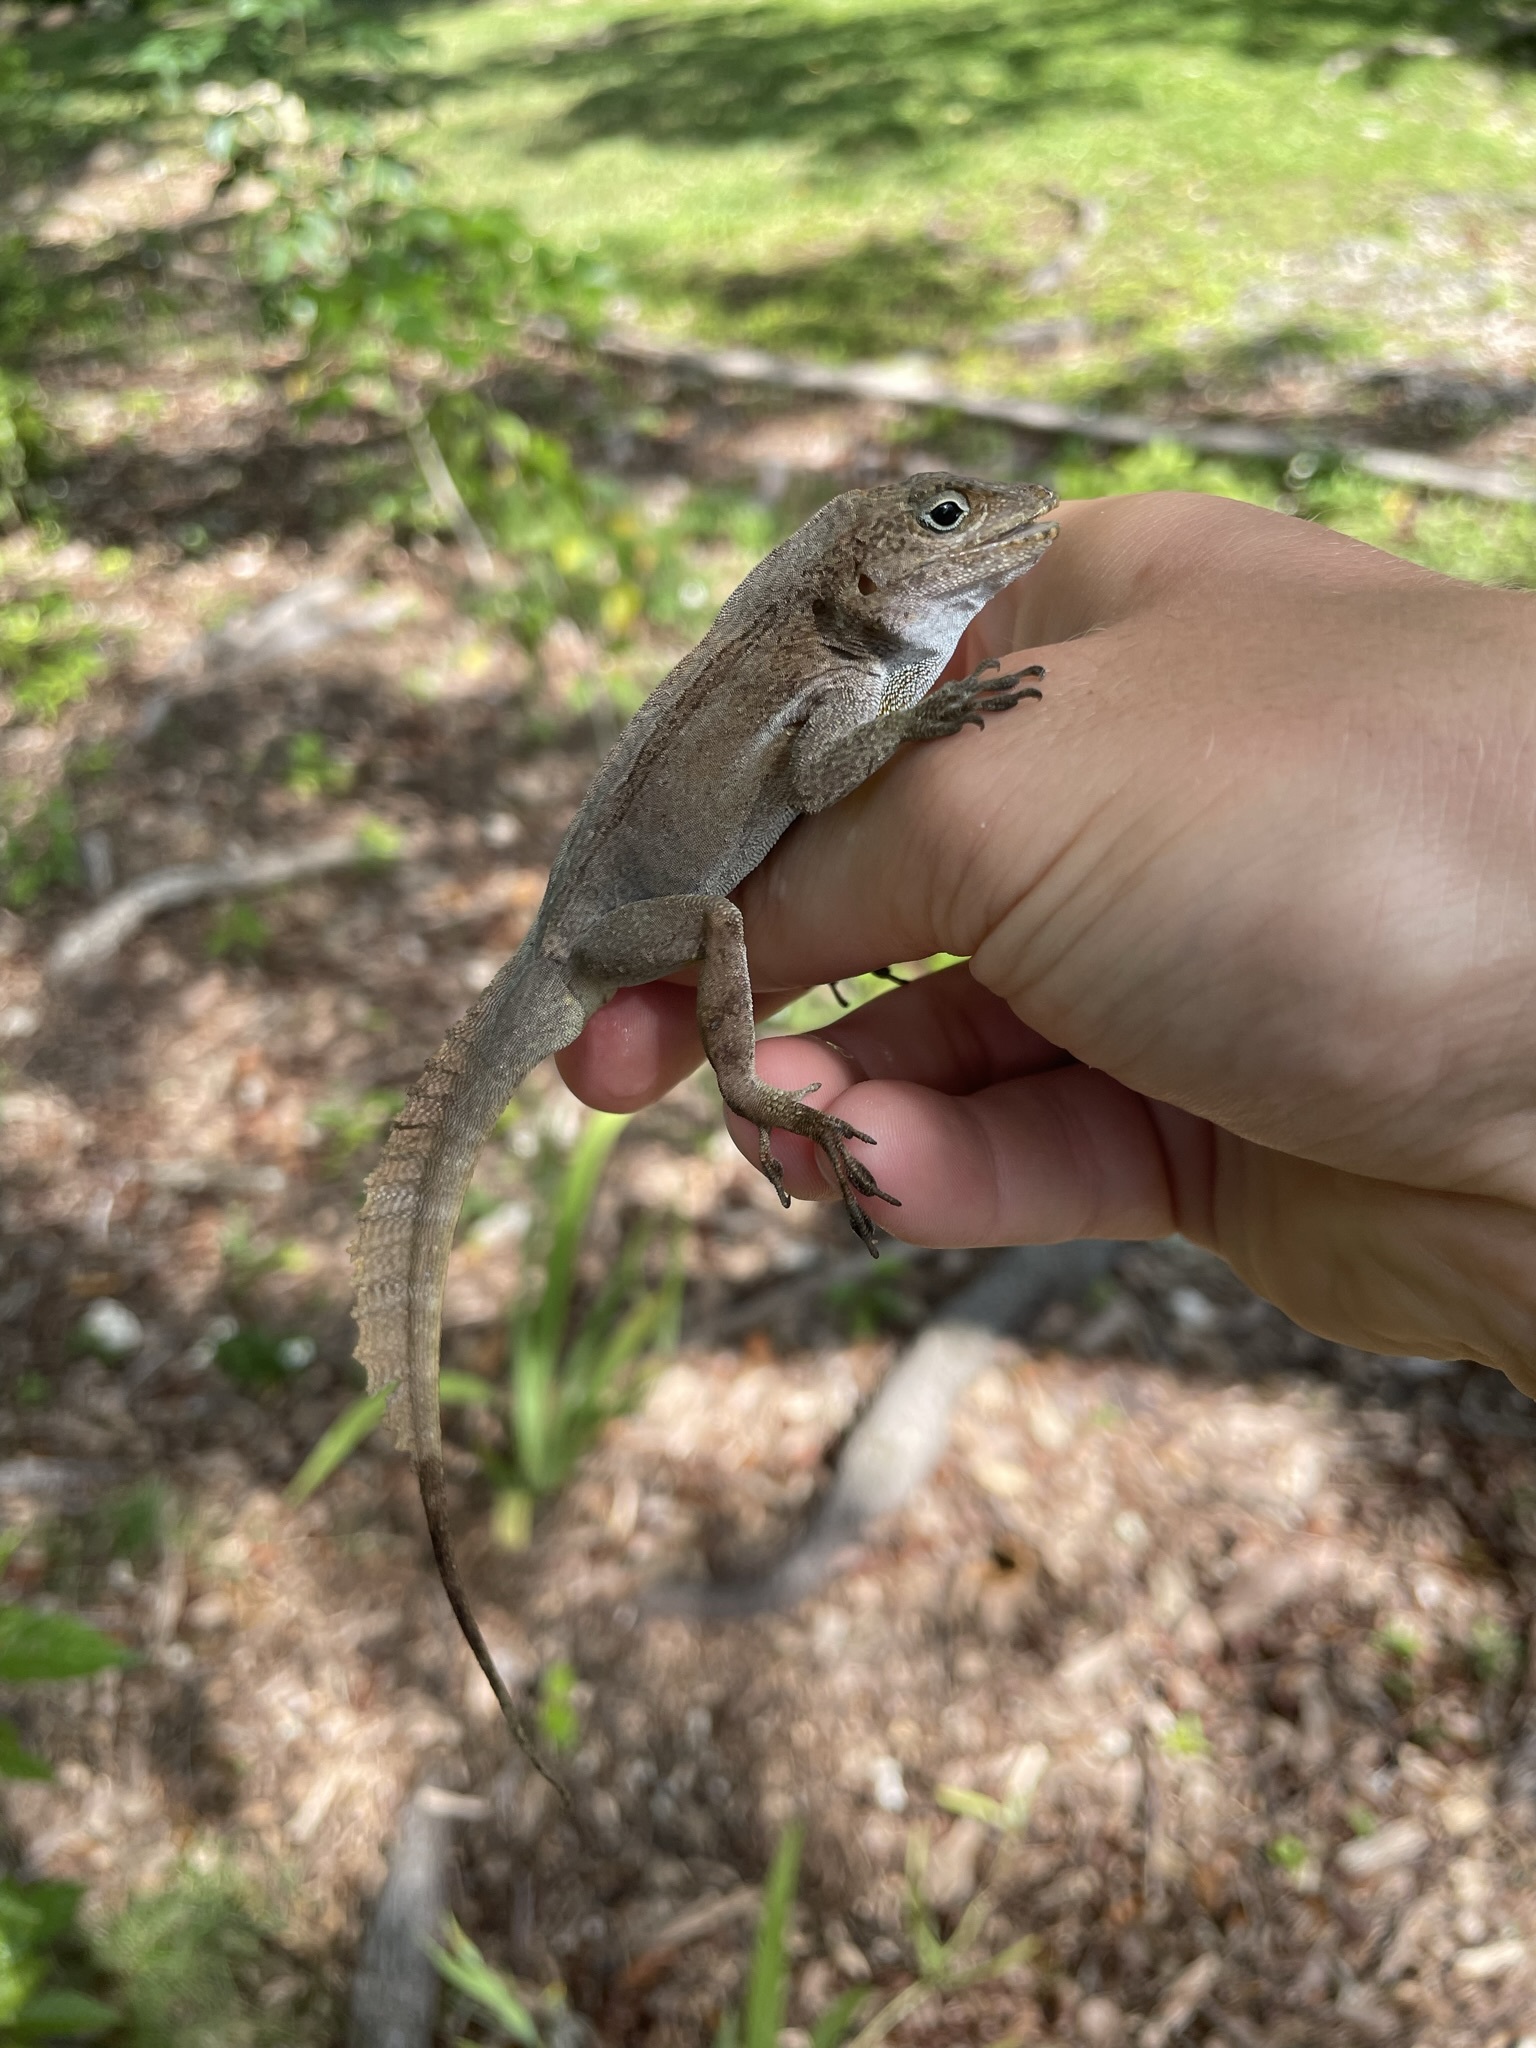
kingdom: Animalia
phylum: Chordata
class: Squamata
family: Dactyloidae
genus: Anolis
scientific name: Anolis cristatellus
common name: Crested anole
